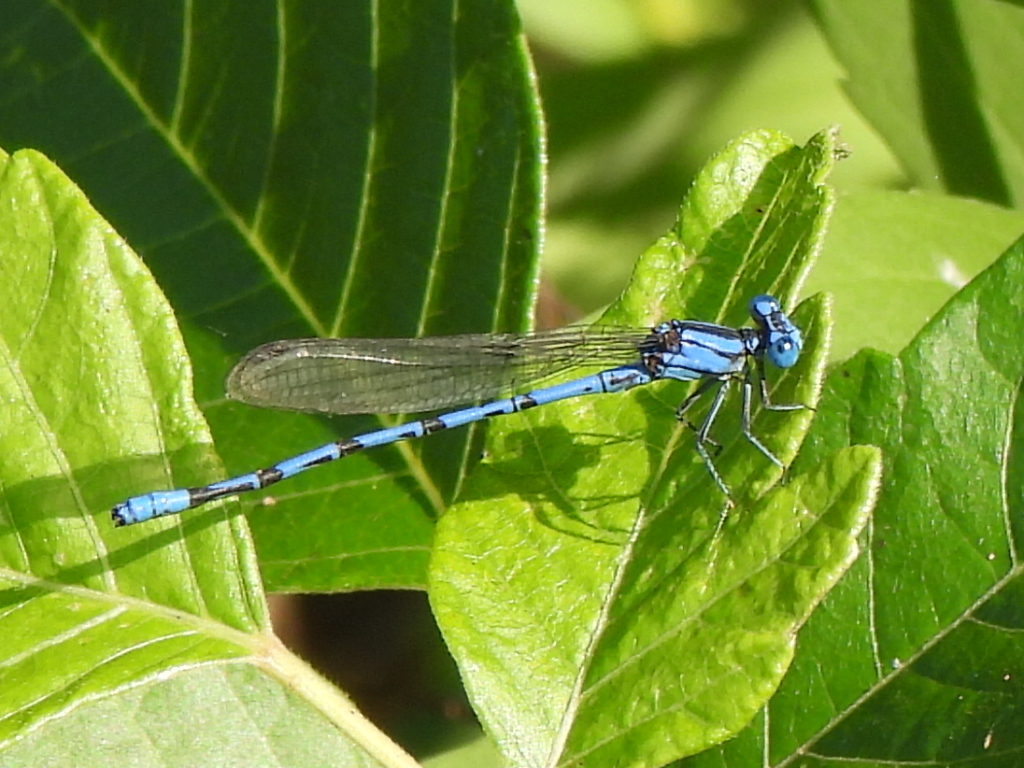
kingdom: Animalia
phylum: Arthropoda
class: Insecta
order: Odonata
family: Coenagrionidae
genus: Argia
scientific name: Argia funebris
